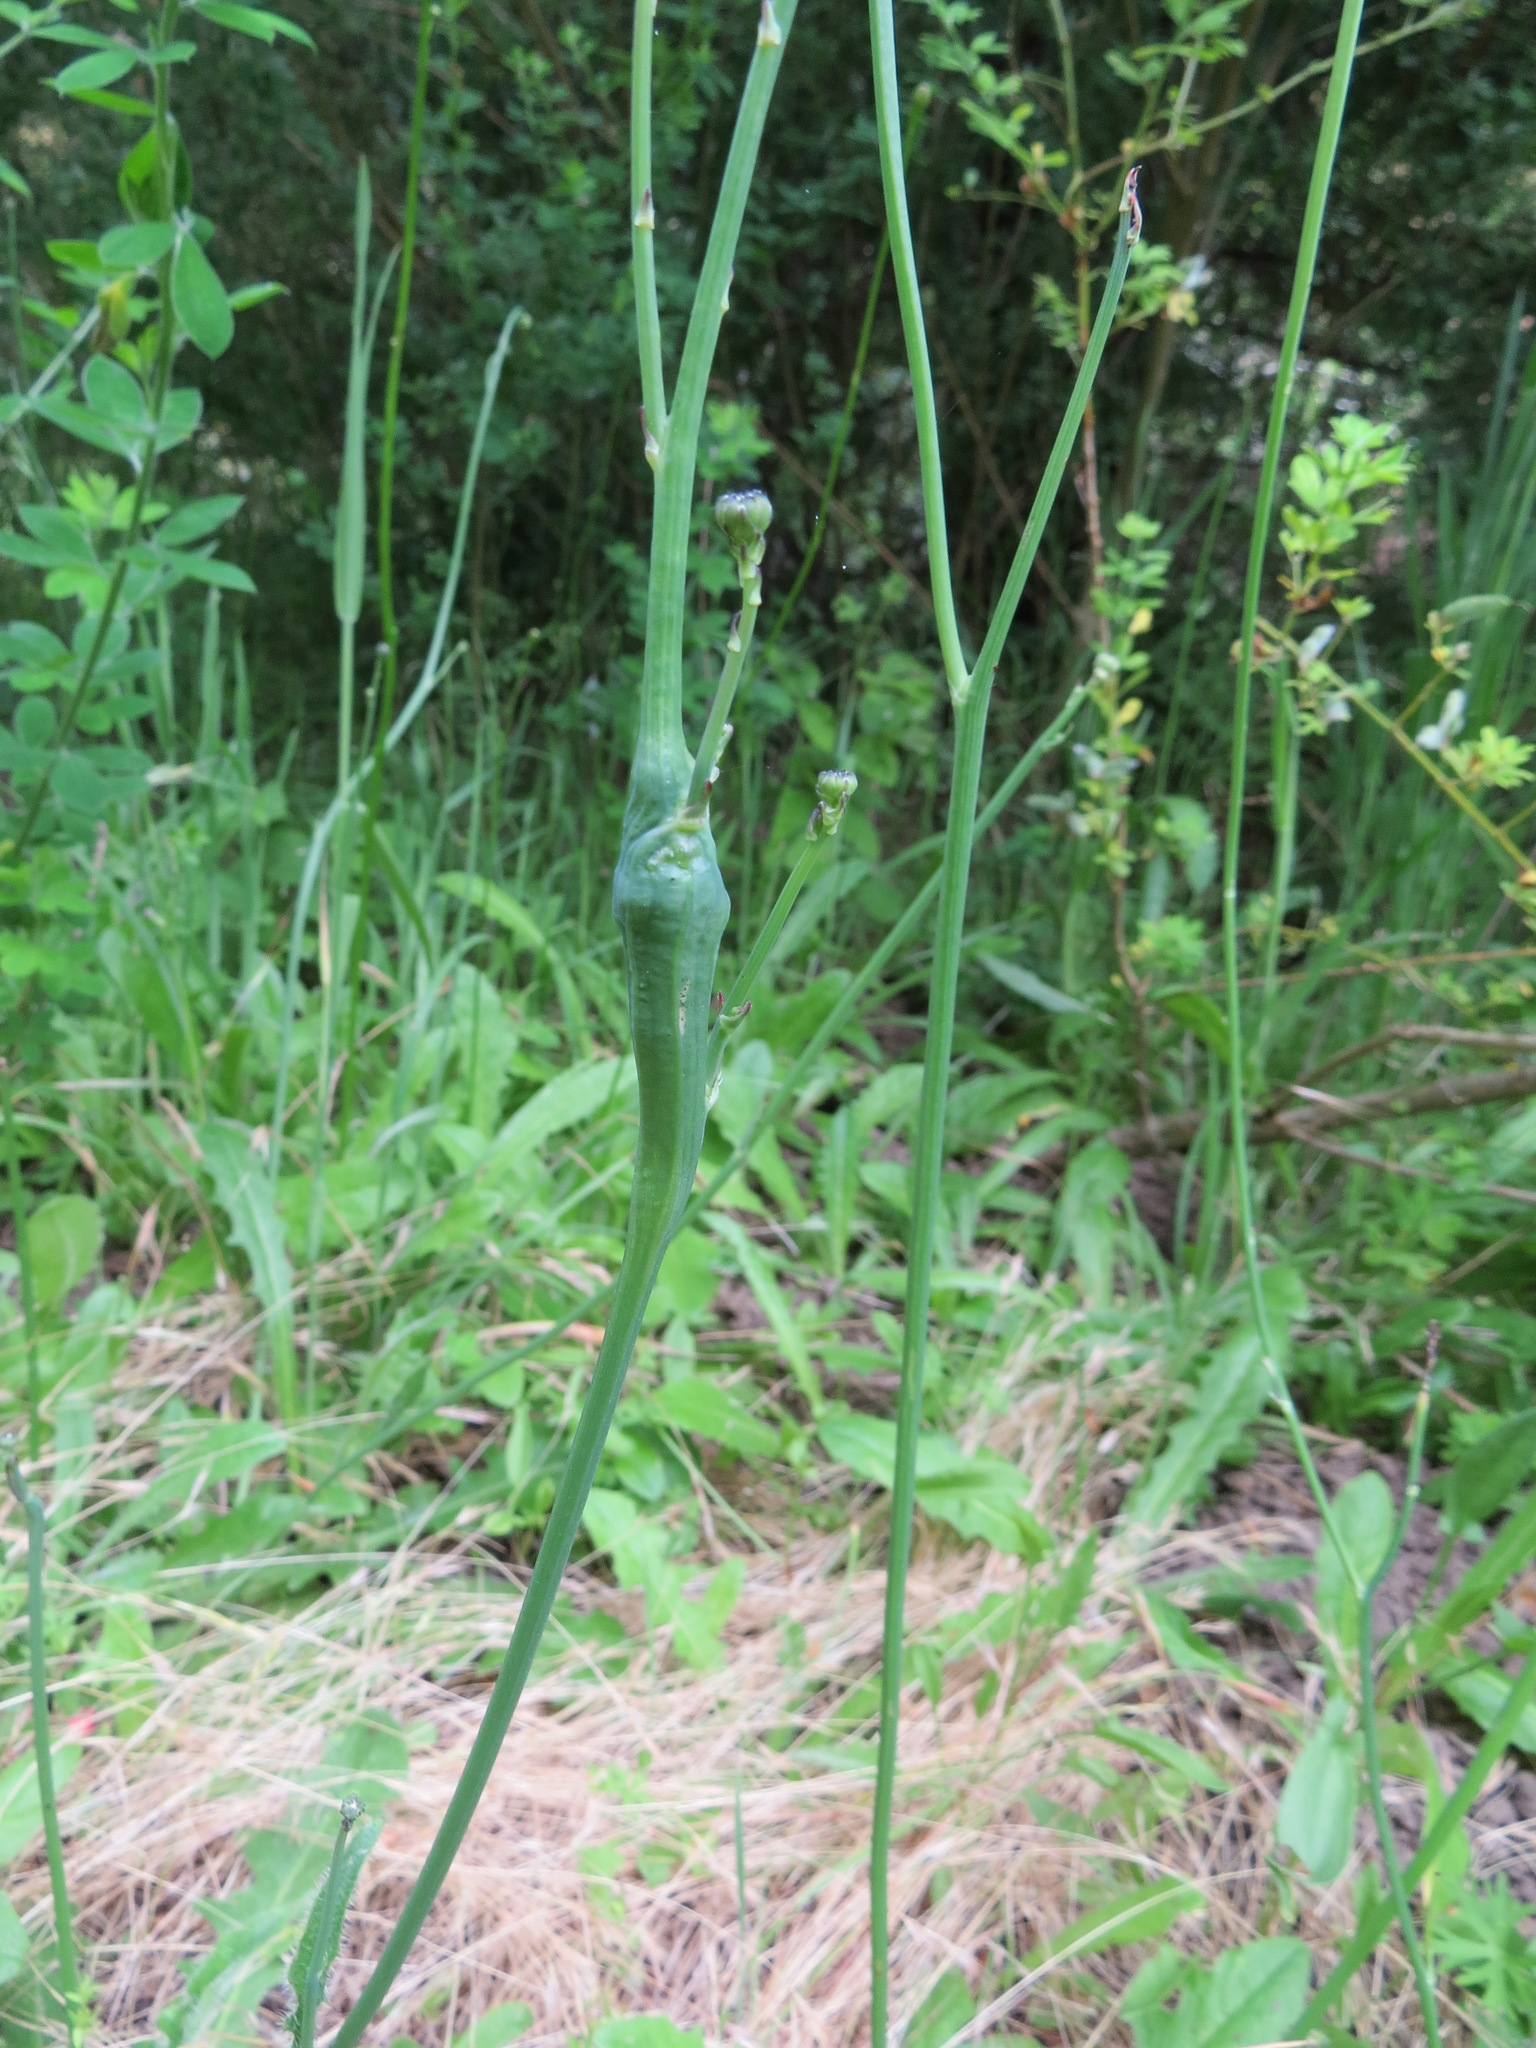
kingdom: Animalia
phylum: Arthropoda
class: Insecta
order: Hymenoptera
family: Cynipidae
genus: Phanacis
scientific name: Phanacis hypochoeridis
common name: Gall wasp
